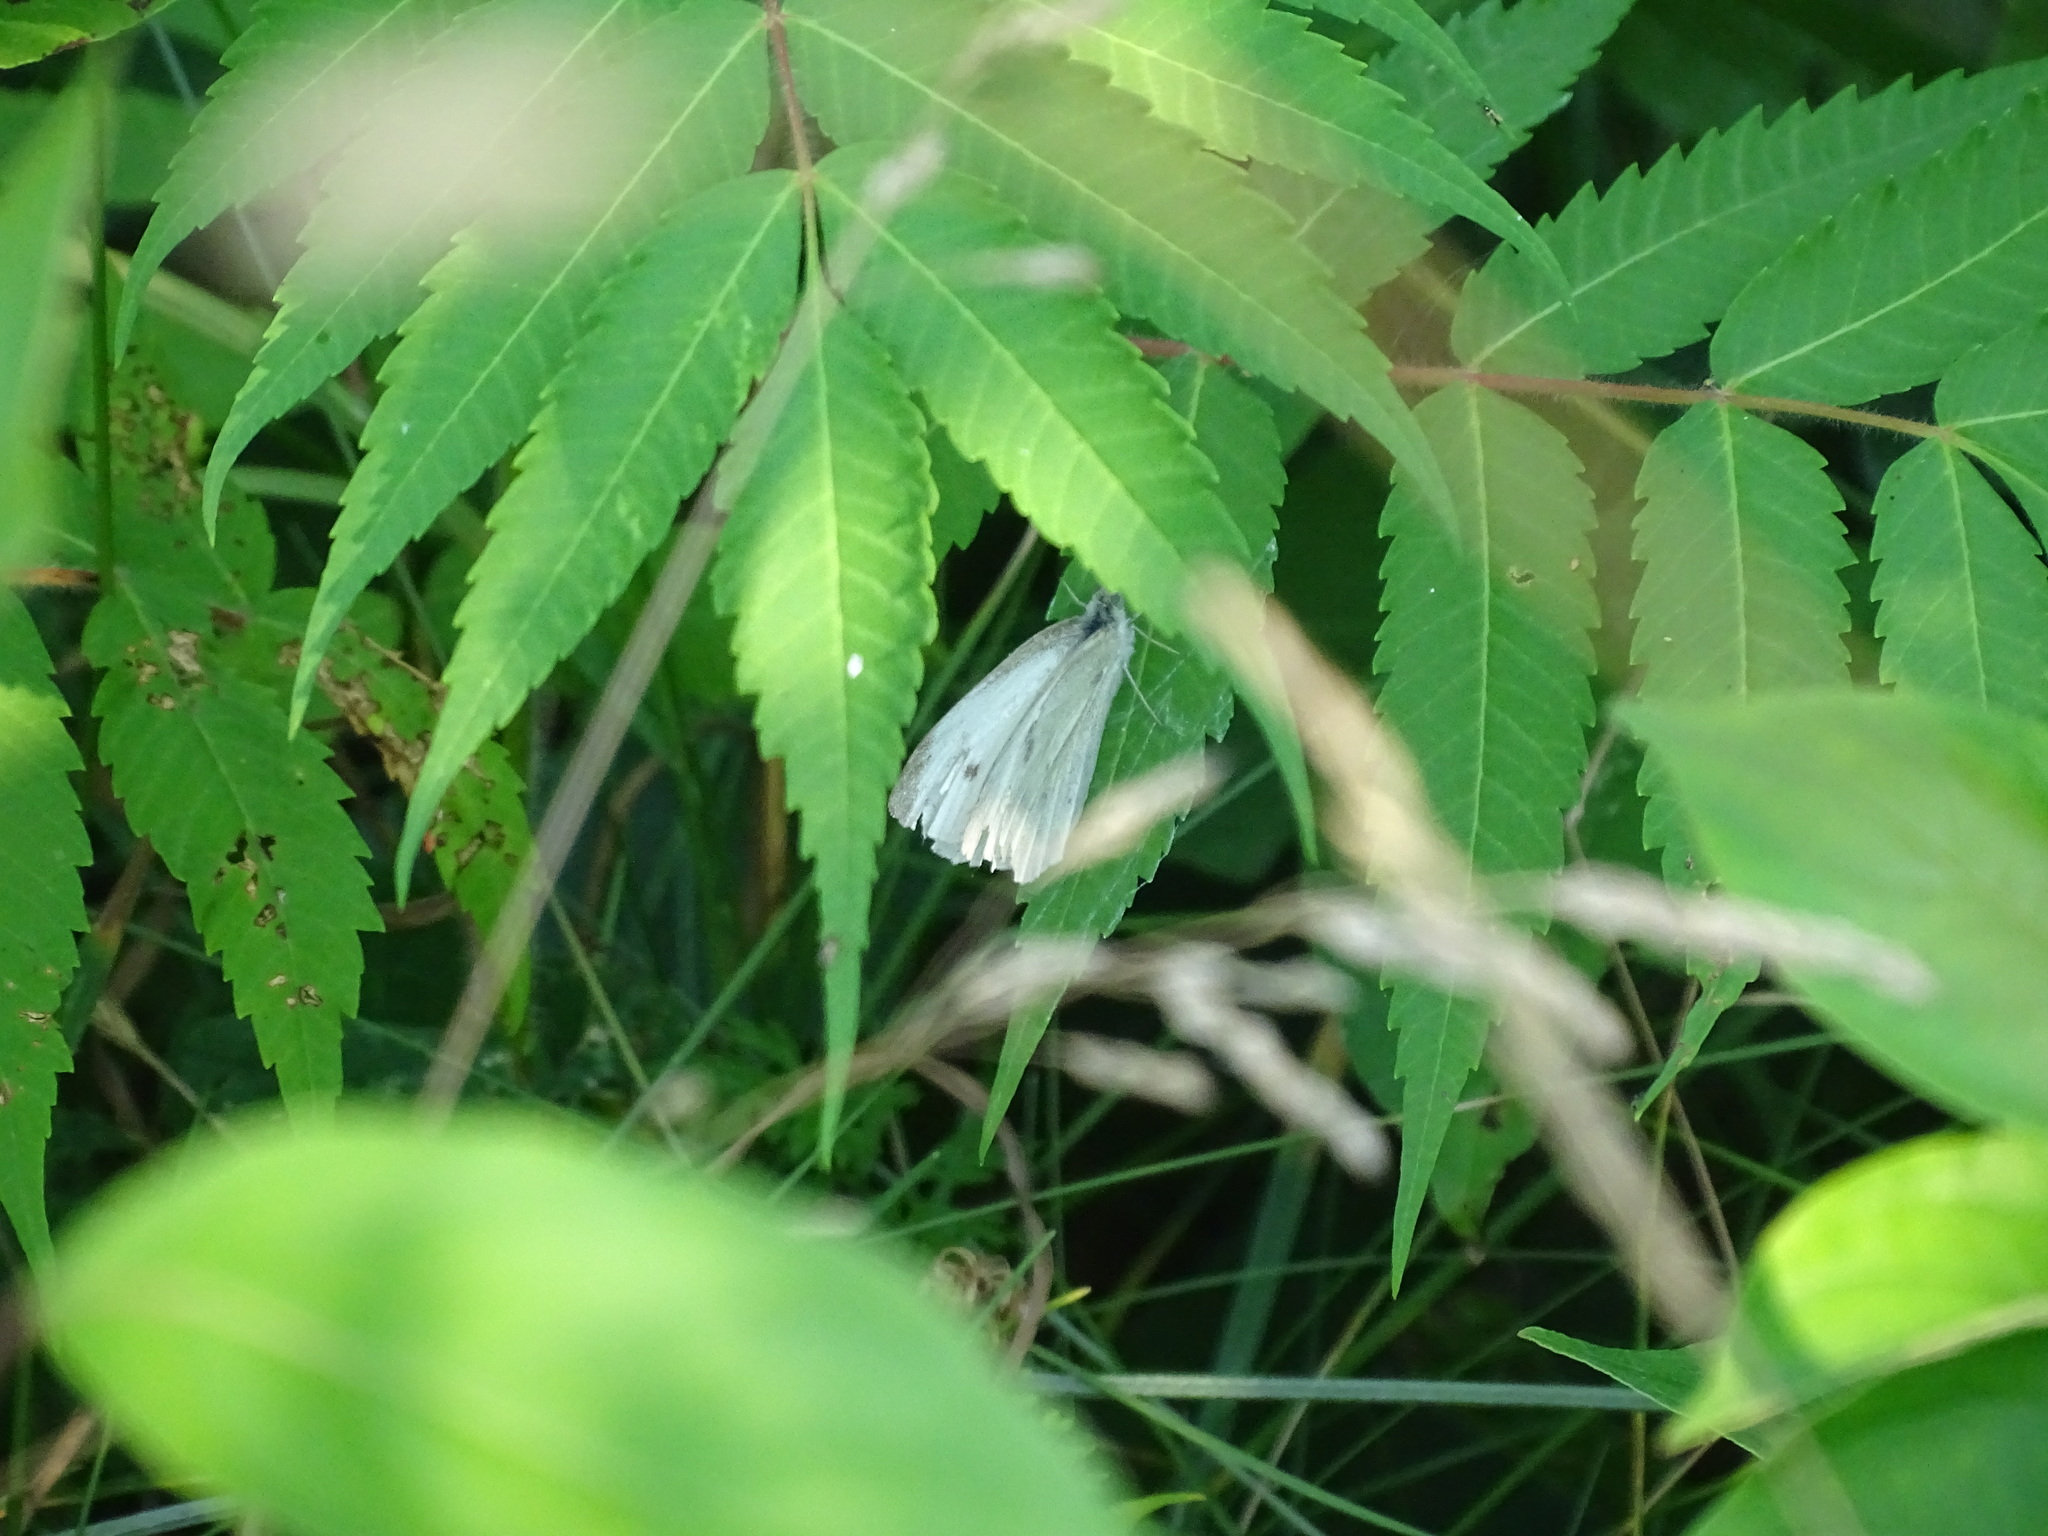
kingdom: Animalia
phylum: Arthropoda
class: Insecta
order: Lepidoptera
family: Pieridae
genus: Pieris
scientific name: Pieris rapae
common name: Small white
